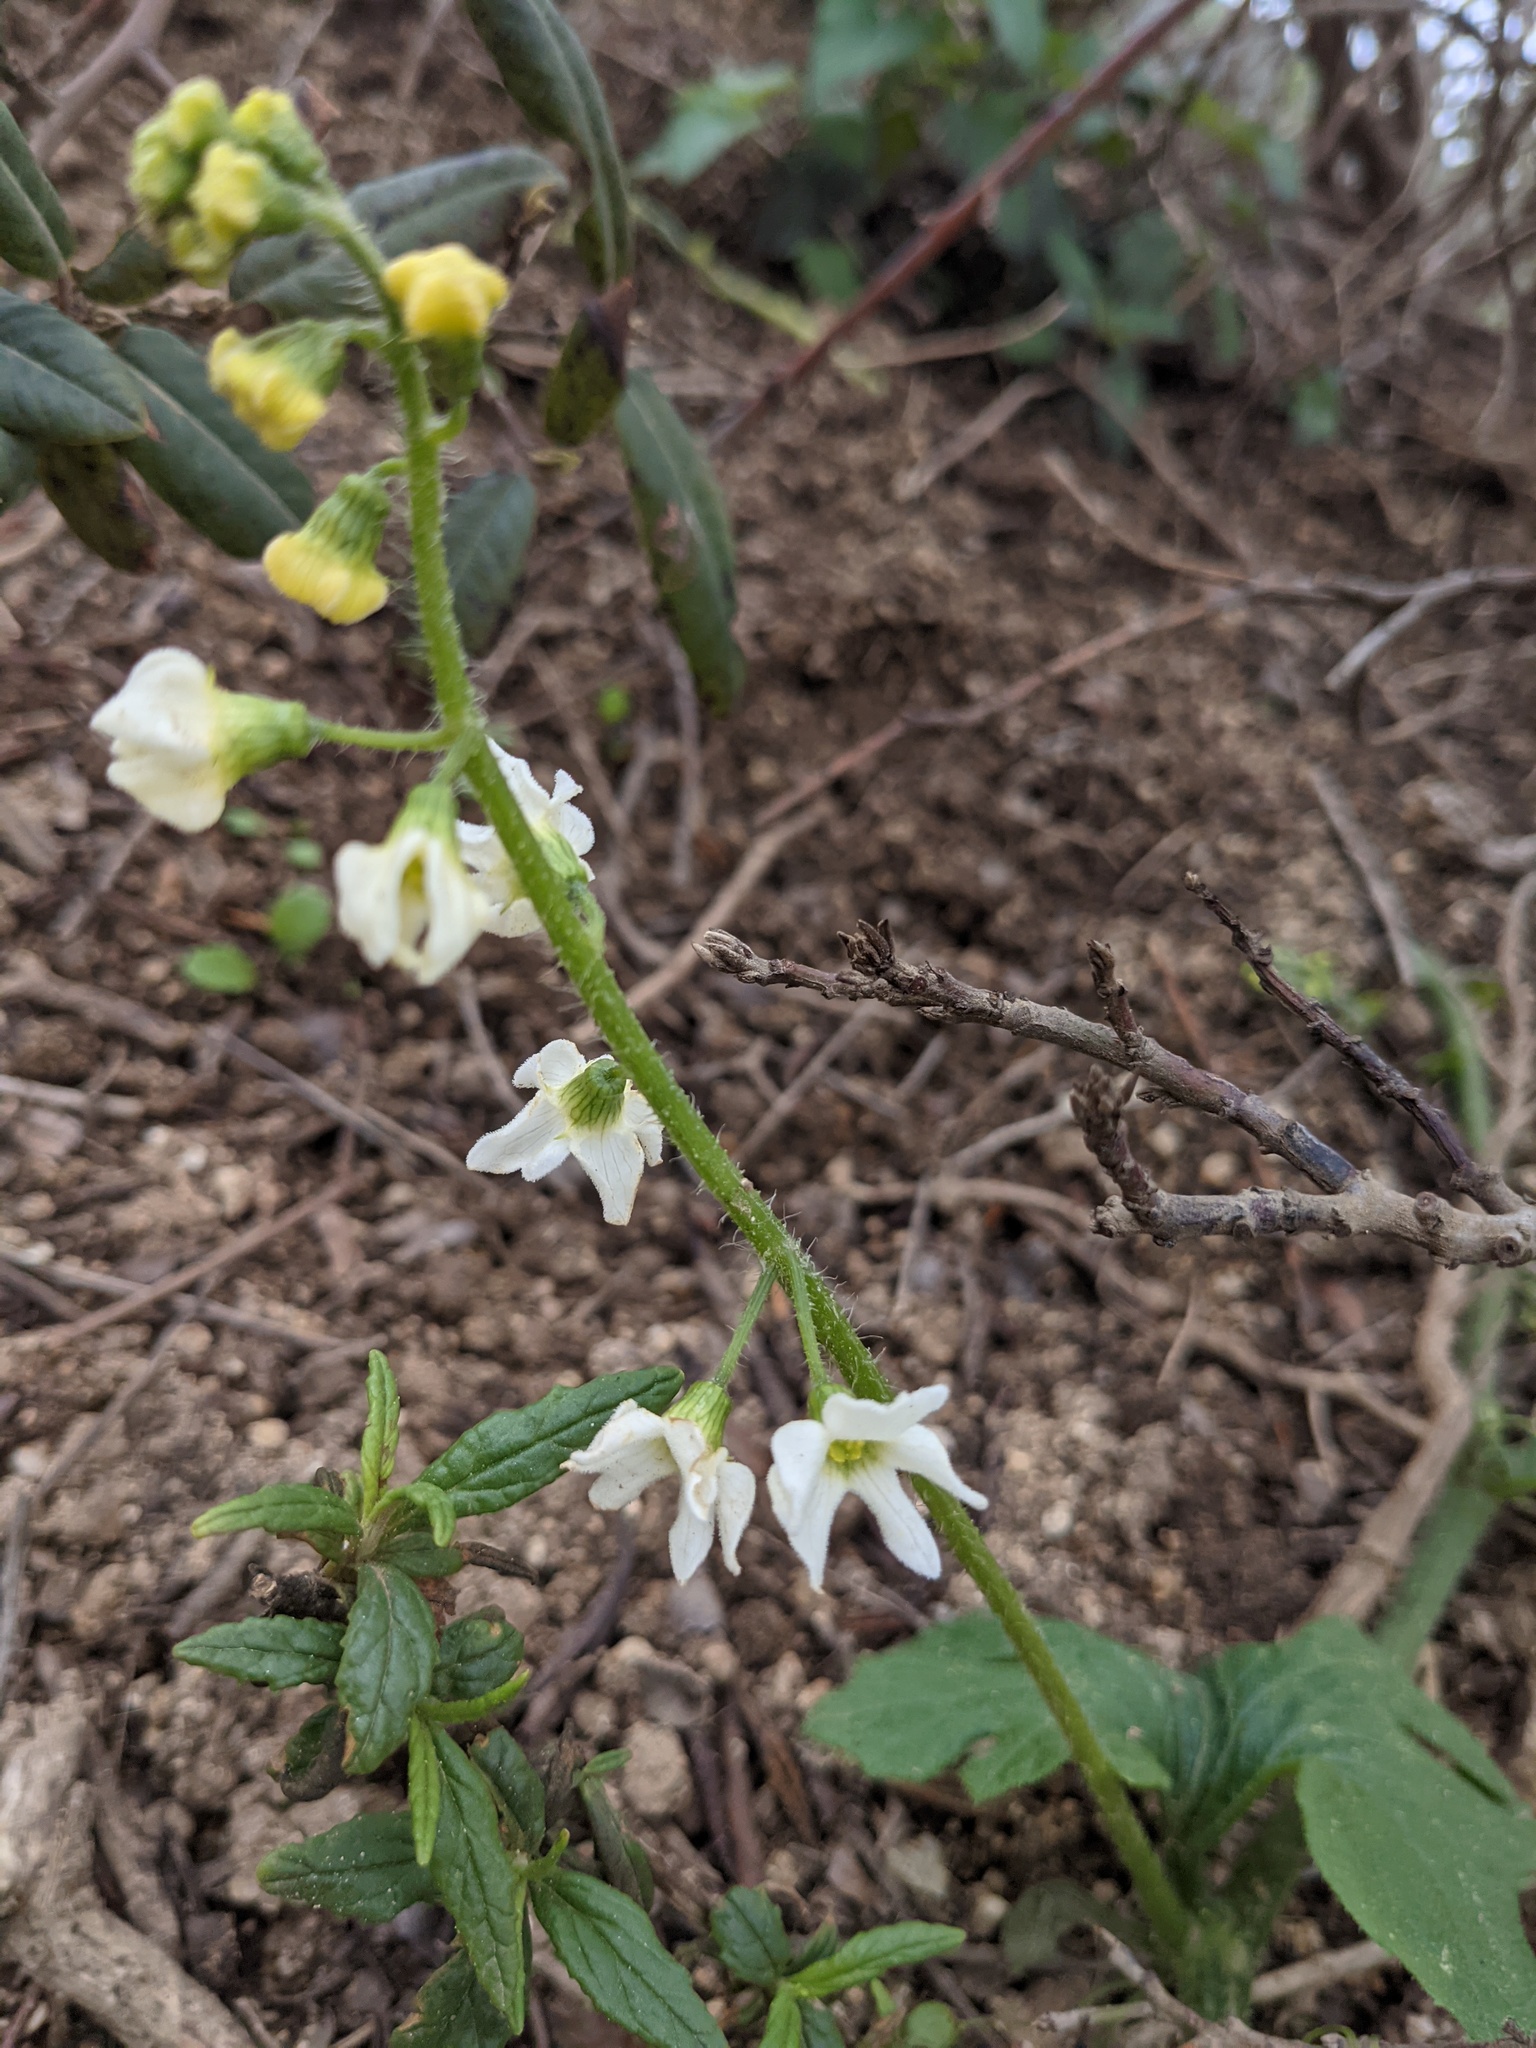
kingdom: Plantae
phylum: Tracheophyta
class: Magnoliopsida
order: Cucurbitales
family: Cucurbitaceae
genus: Marah
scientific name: Marah oregana
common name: Coastal manroot
